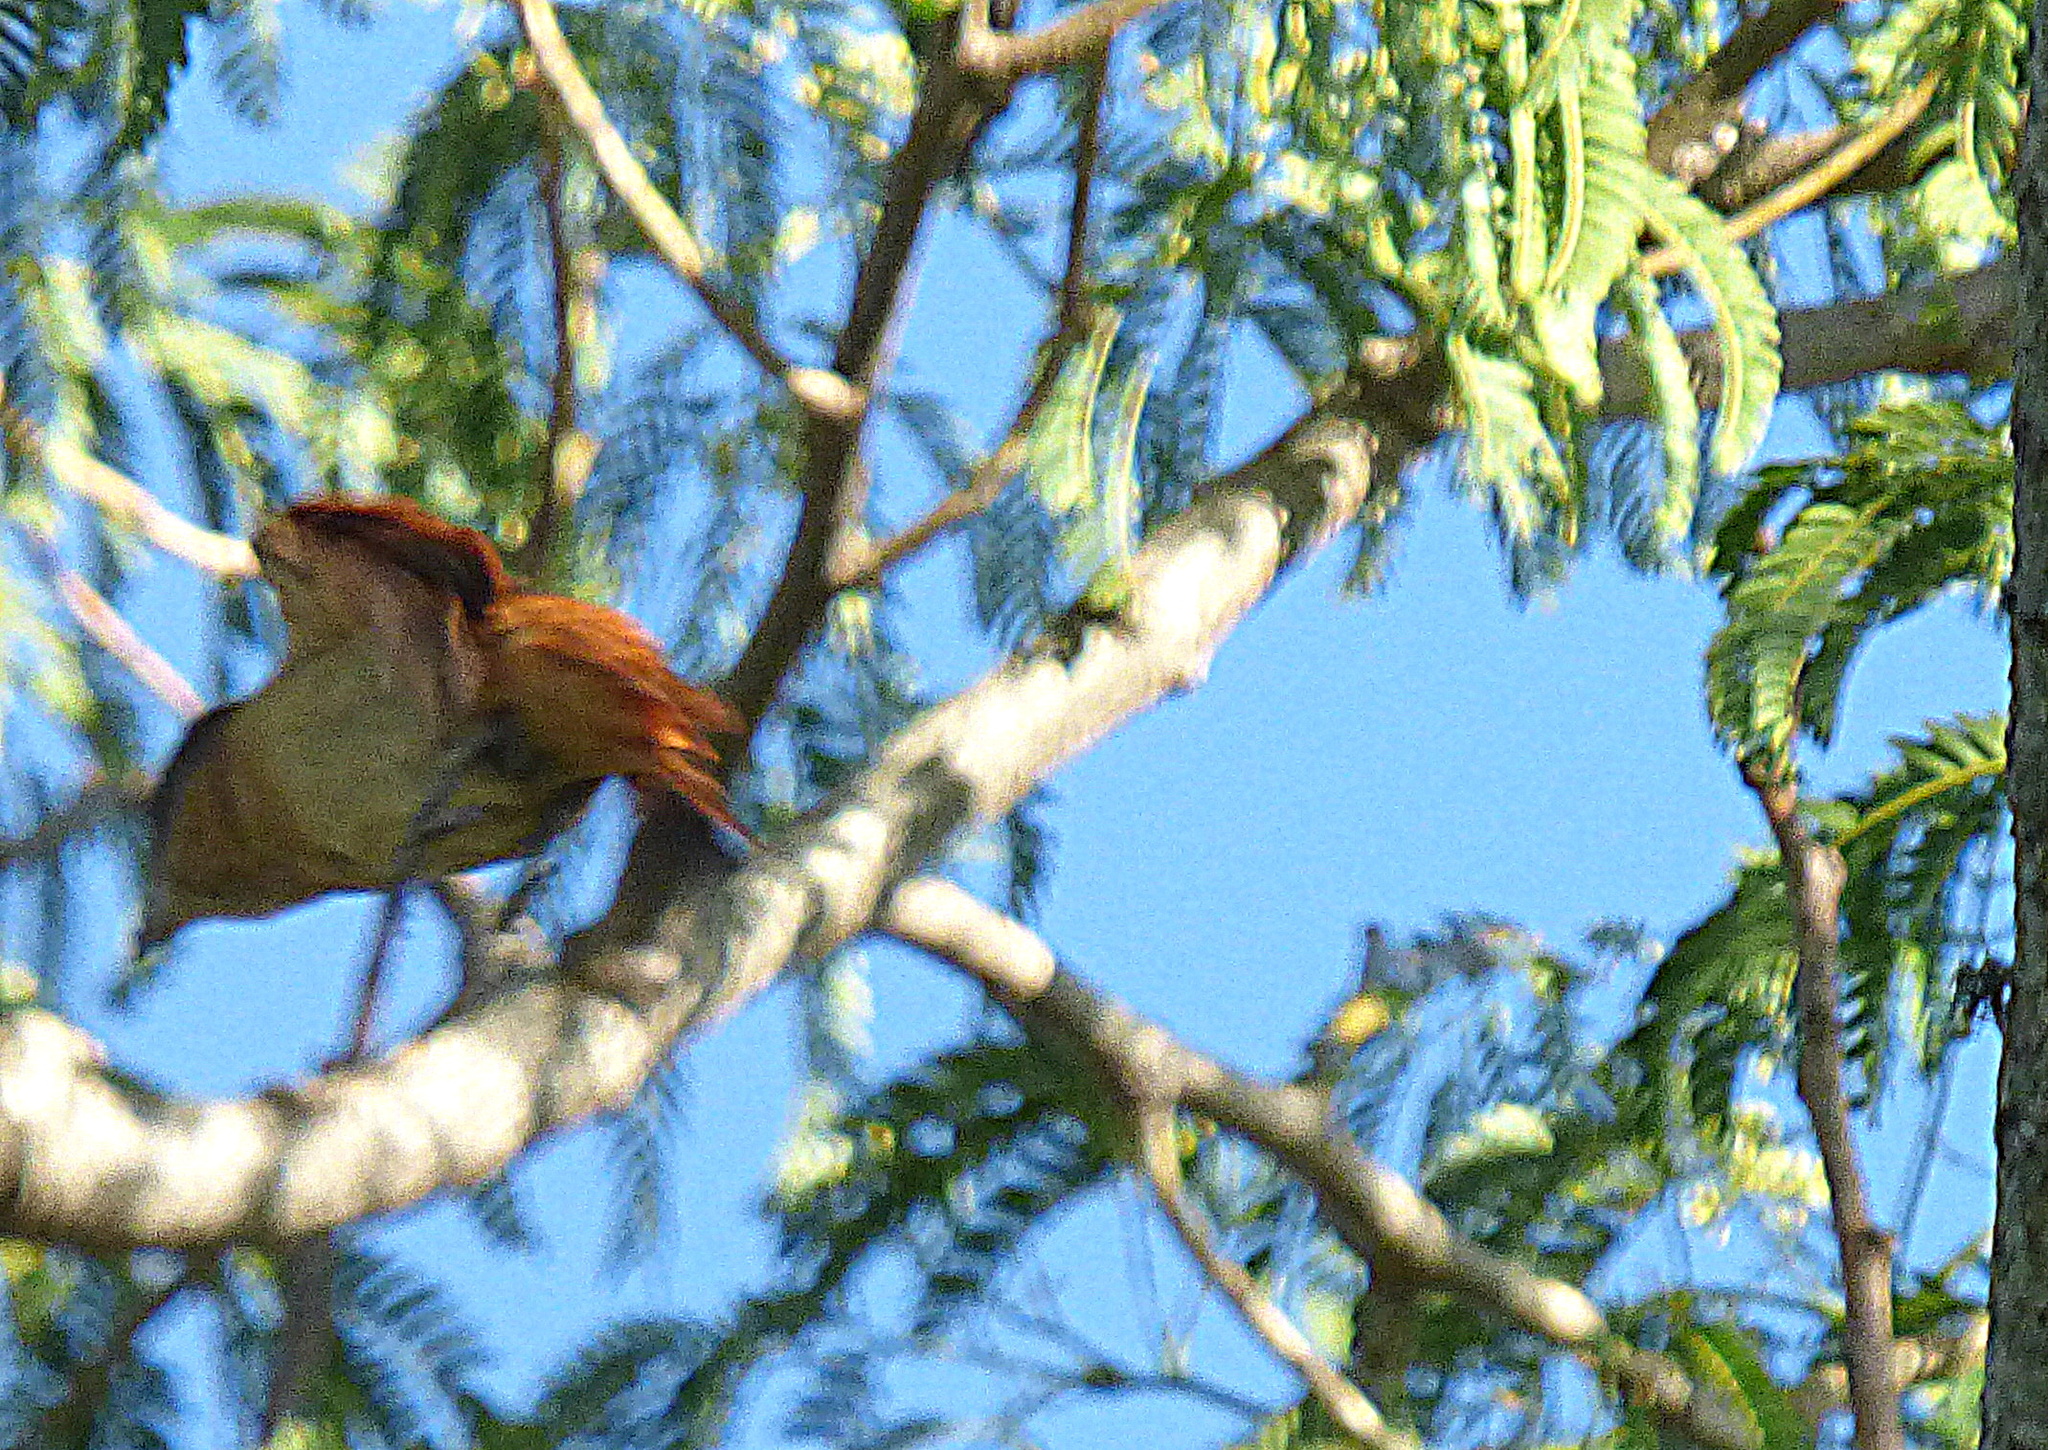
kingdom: Animalia
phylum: Chordata
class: Aves
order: Passeriformes
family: Cotingidae
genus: Pachyramphus
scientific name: Pachyramphus validus
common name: Crested becard
